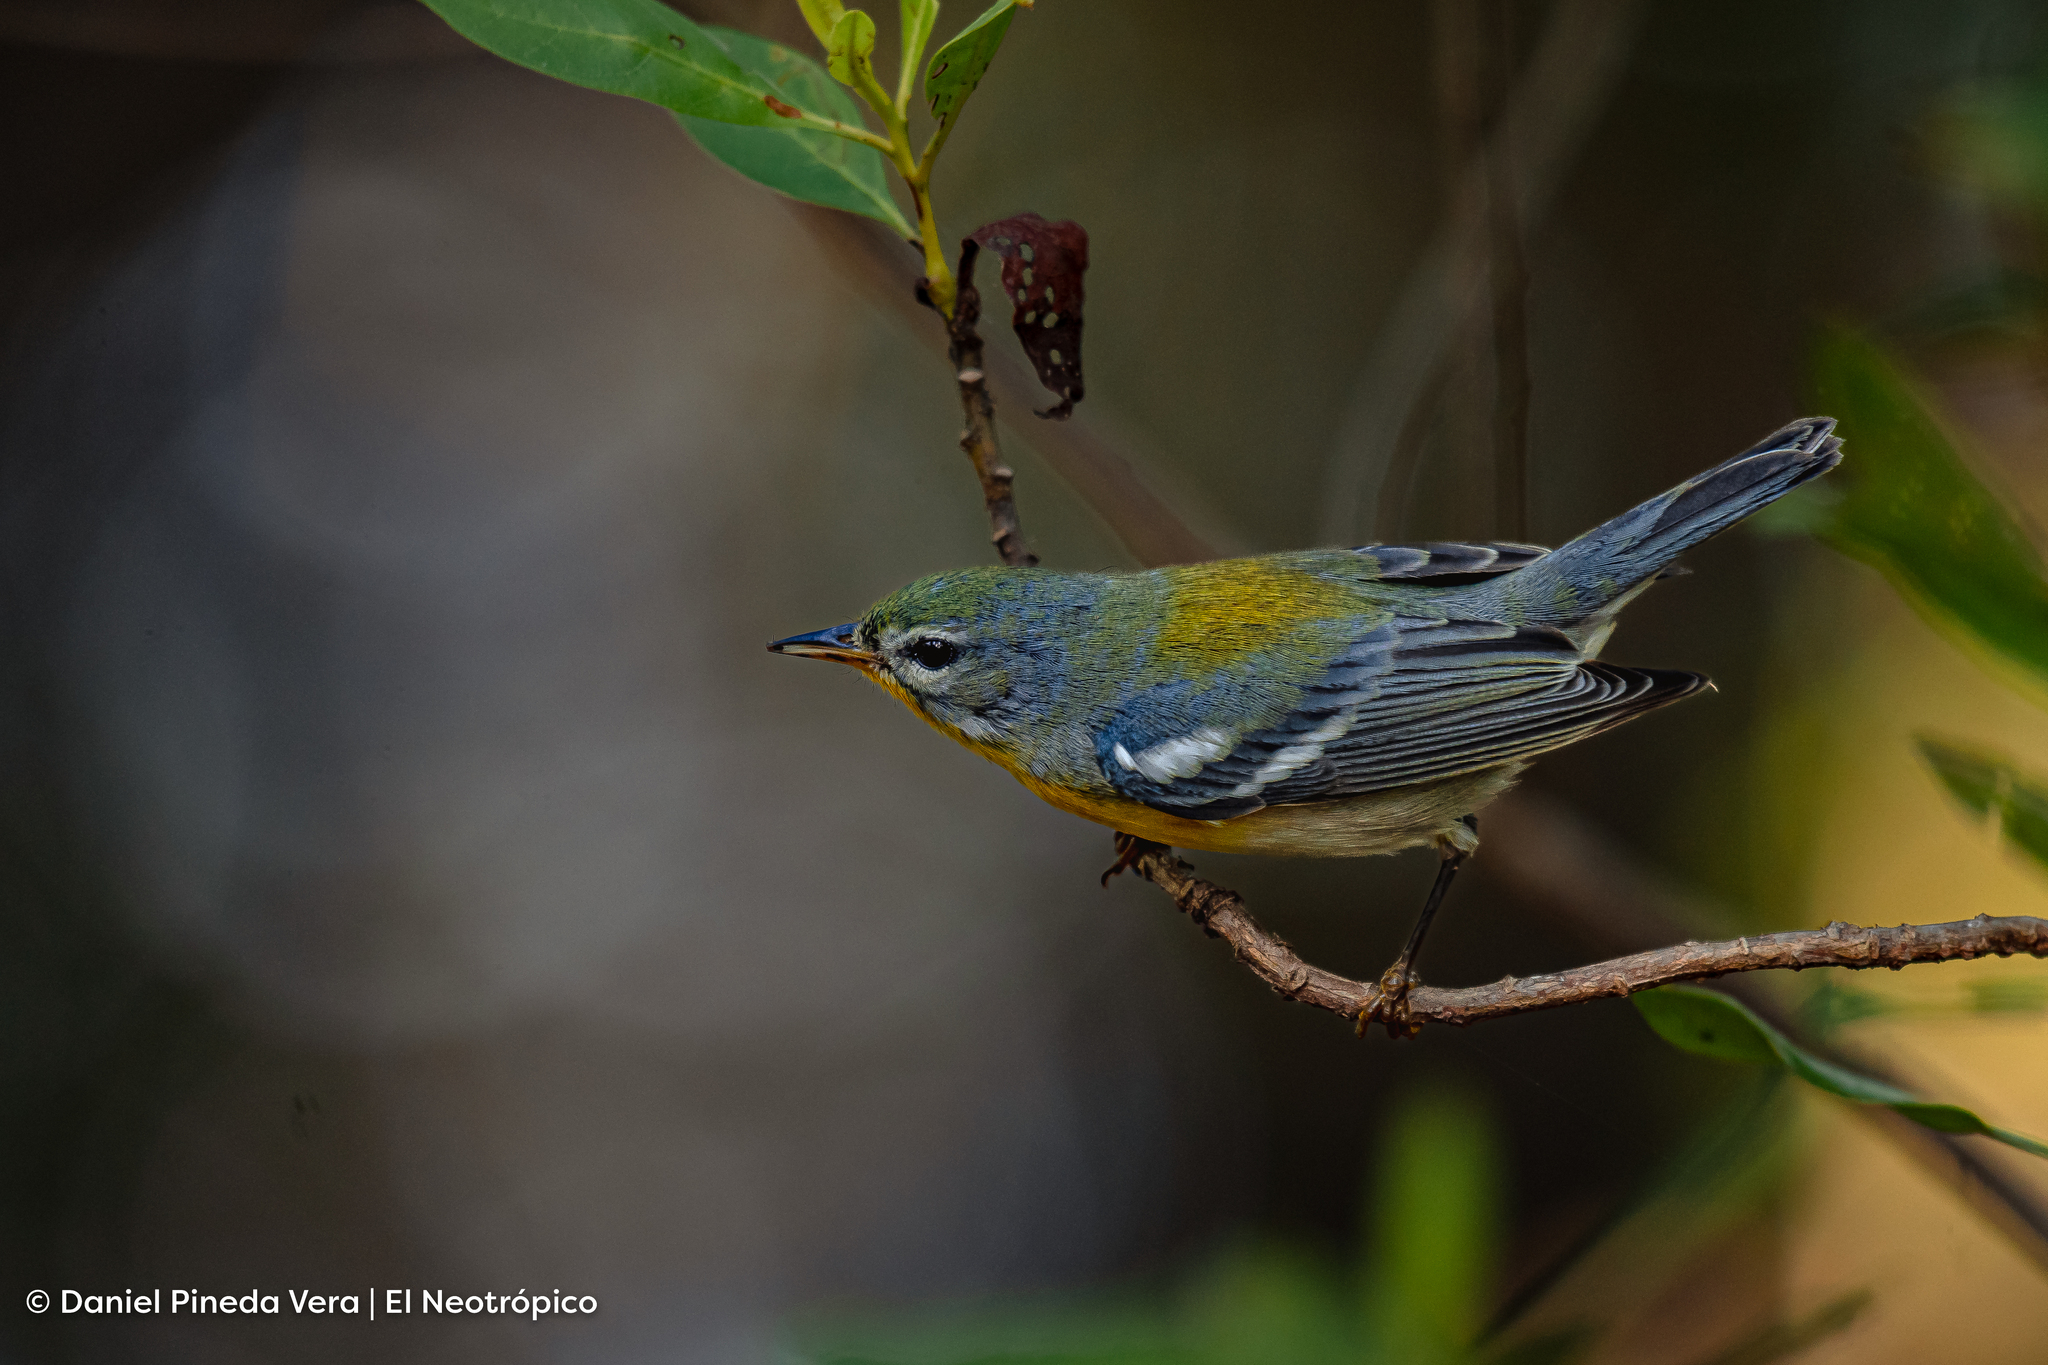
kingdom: Animalia
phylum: Chordata
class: Aves
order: Passeriformes
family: Parulidae
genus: Setophaga
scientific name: Setophaga americana
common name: Northern parula
